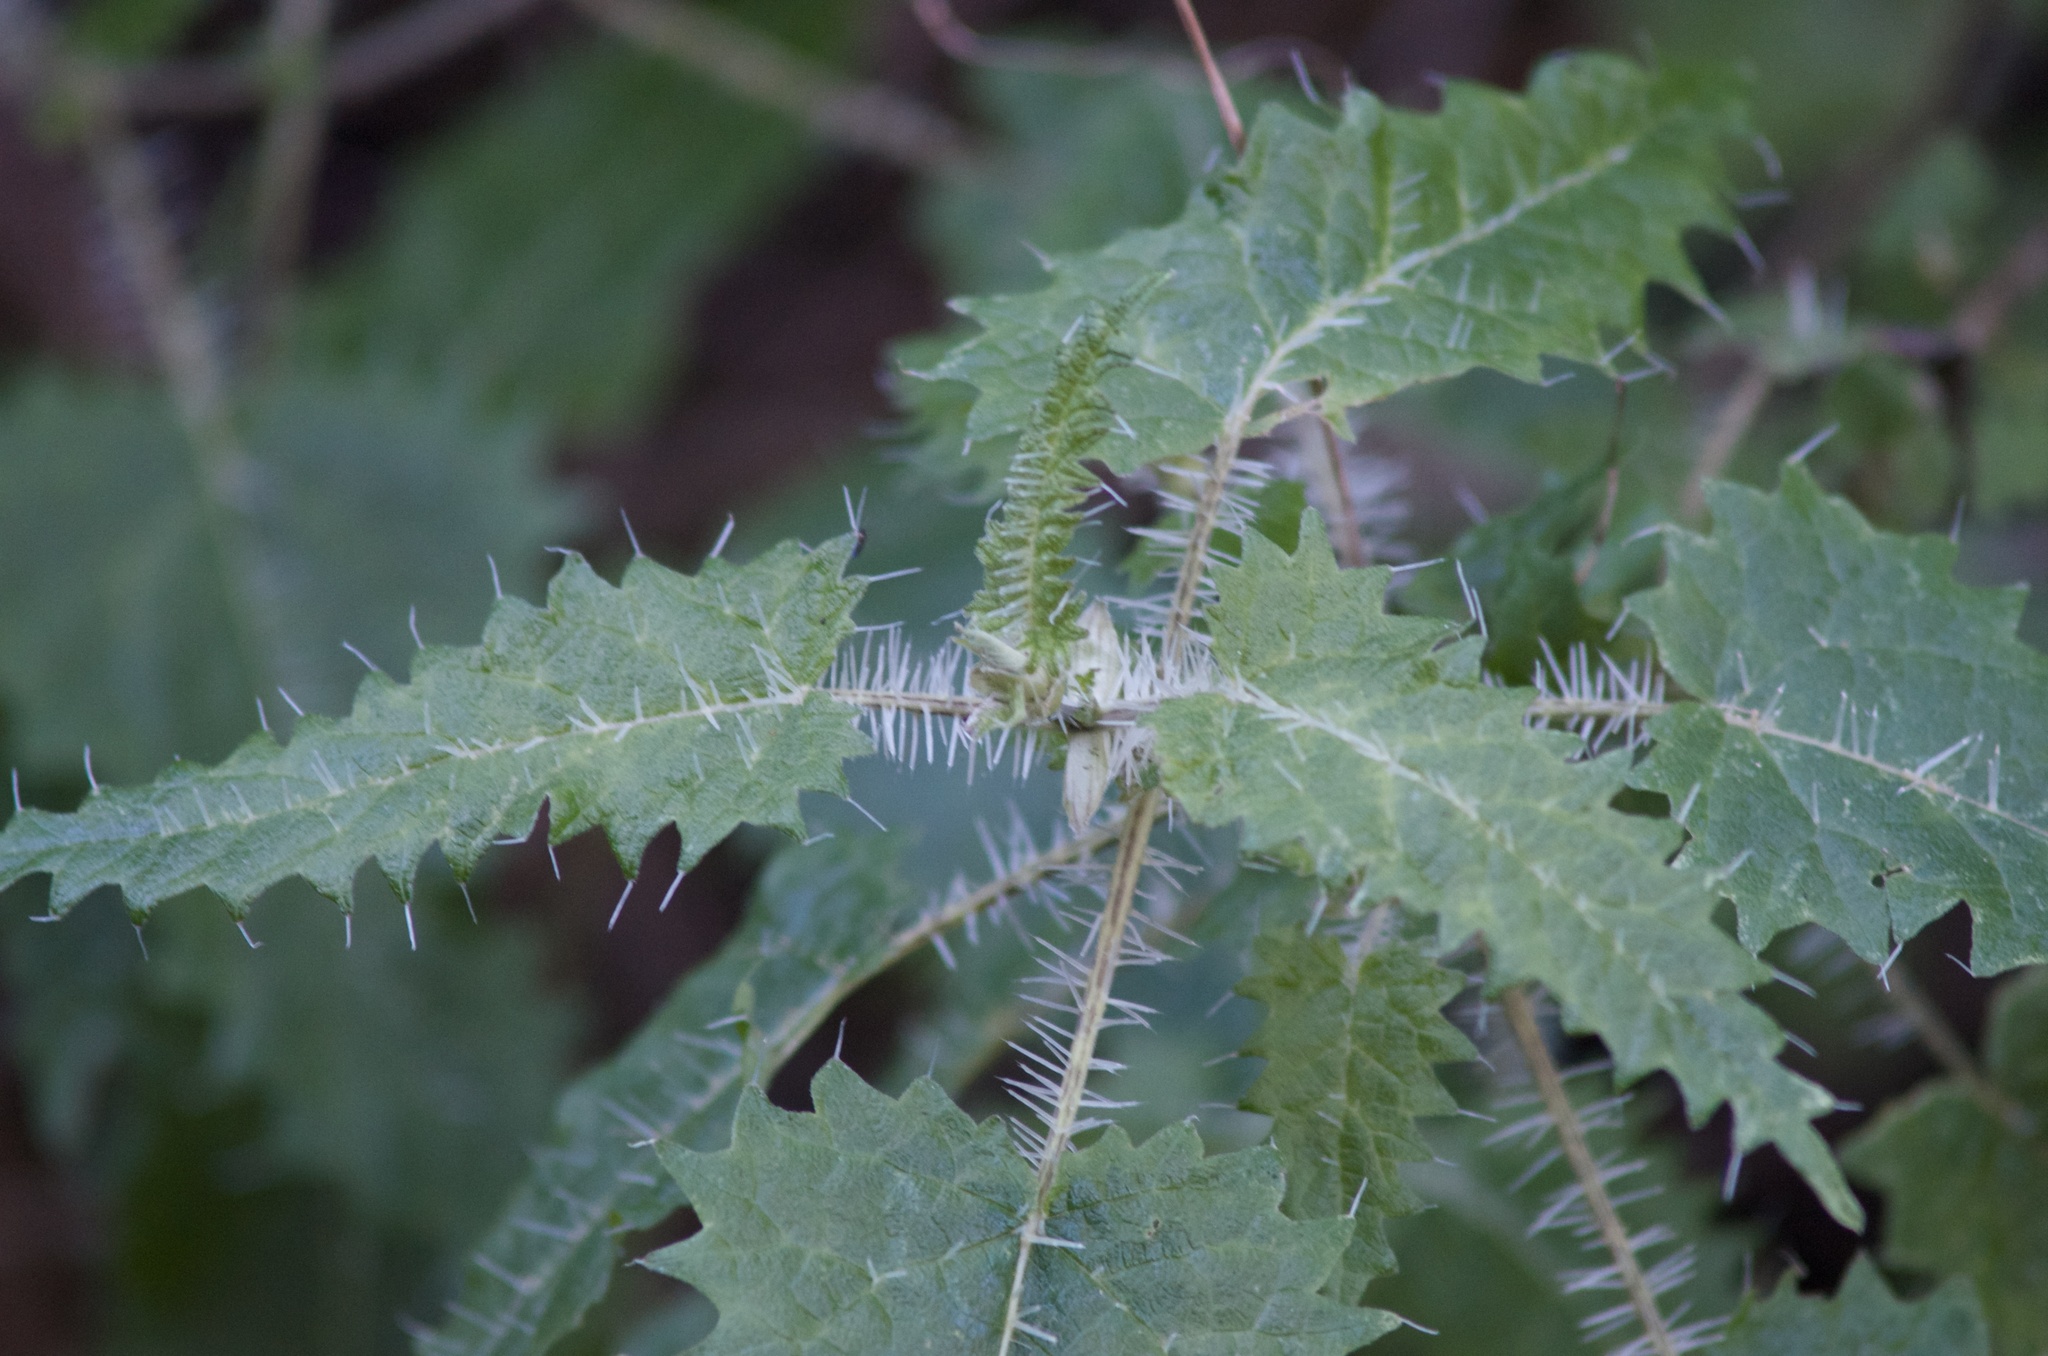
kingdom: Plantae
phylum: Tracheophyta
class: Magnoliopsida
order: Rosales
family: Urticaceae
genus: Urtica
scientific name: Urtica ferox
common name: Tree nettle
